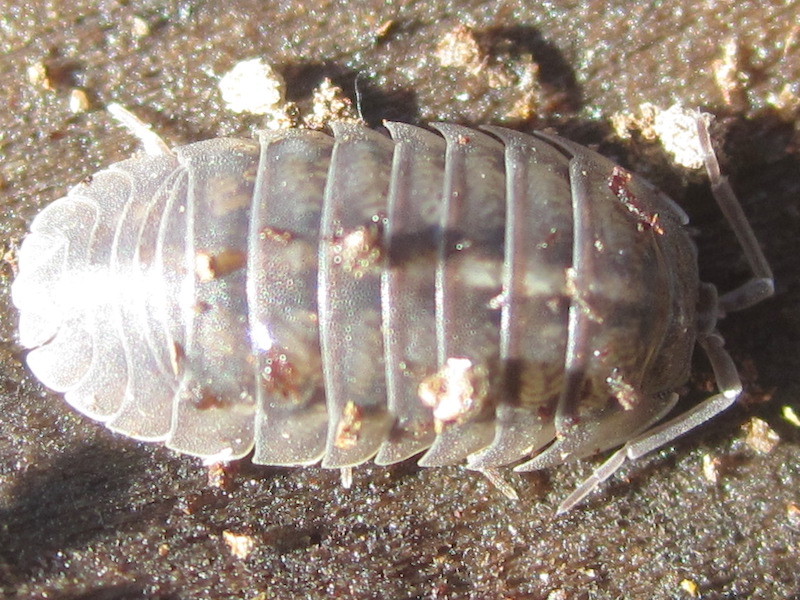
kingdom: Animalia
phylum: Arthropoda
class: Malacostraca
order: Isopoda
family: Armadillidiidae
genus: Armadillidium
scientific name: Armadillidium nasatum
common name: Isopod
